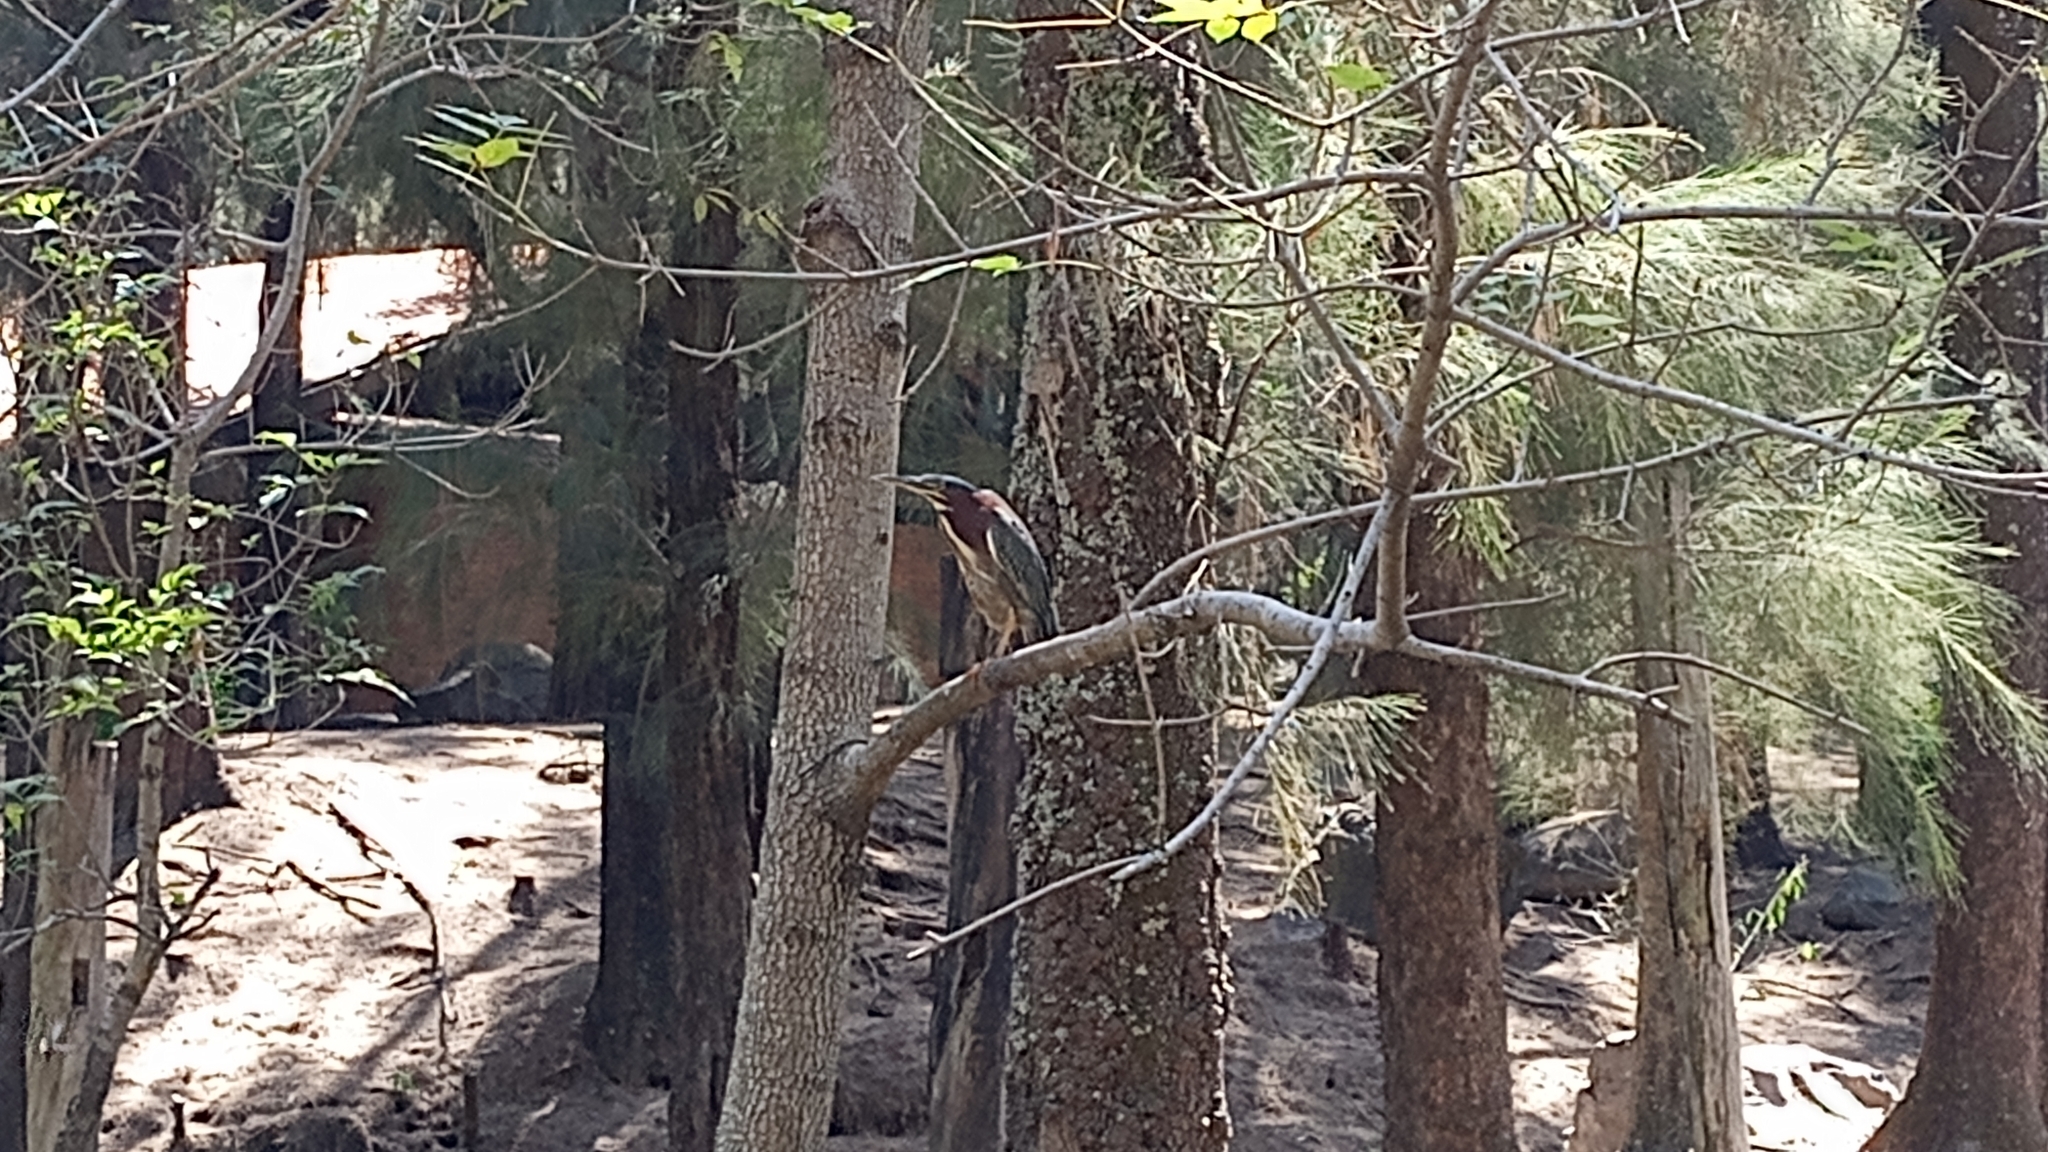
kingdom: Animalia
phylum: Chordata
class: Aves
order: Pelecaniformes
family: Ardeidae
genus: Butorides
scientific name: Butorides virescens
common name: Green heron
